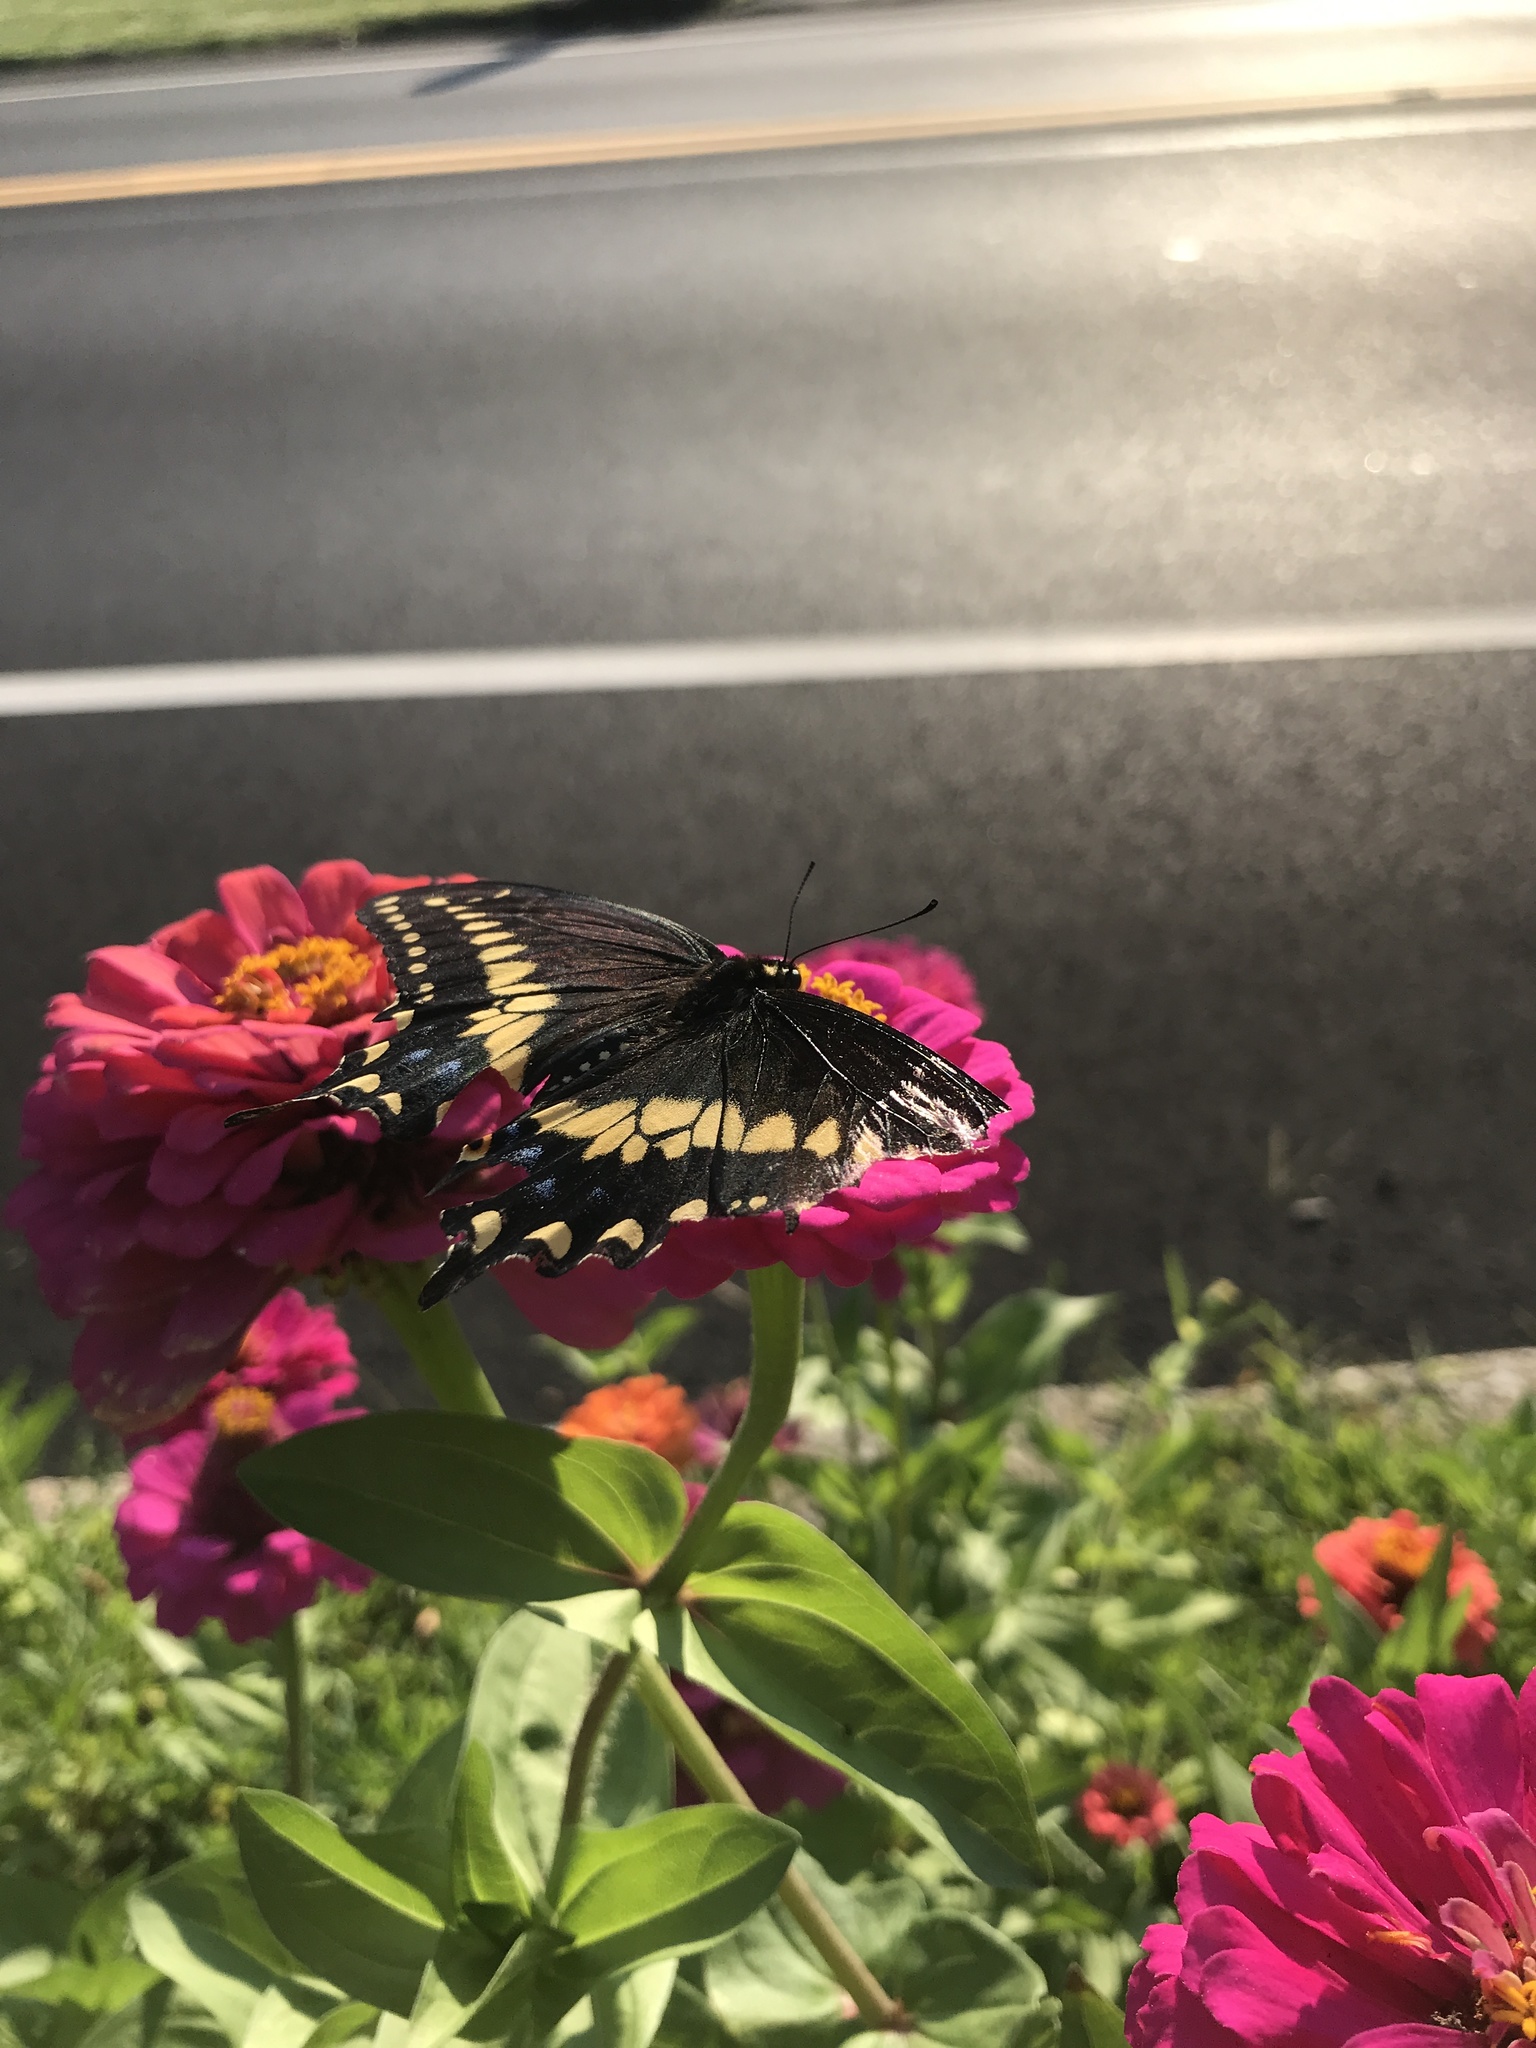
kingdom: Animalia
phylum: Arthropoda
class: Insecta
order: Lepidoptera
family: Papilionidae
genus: Papilio
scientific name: Papilio polyxenes
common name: Black swallowtail
